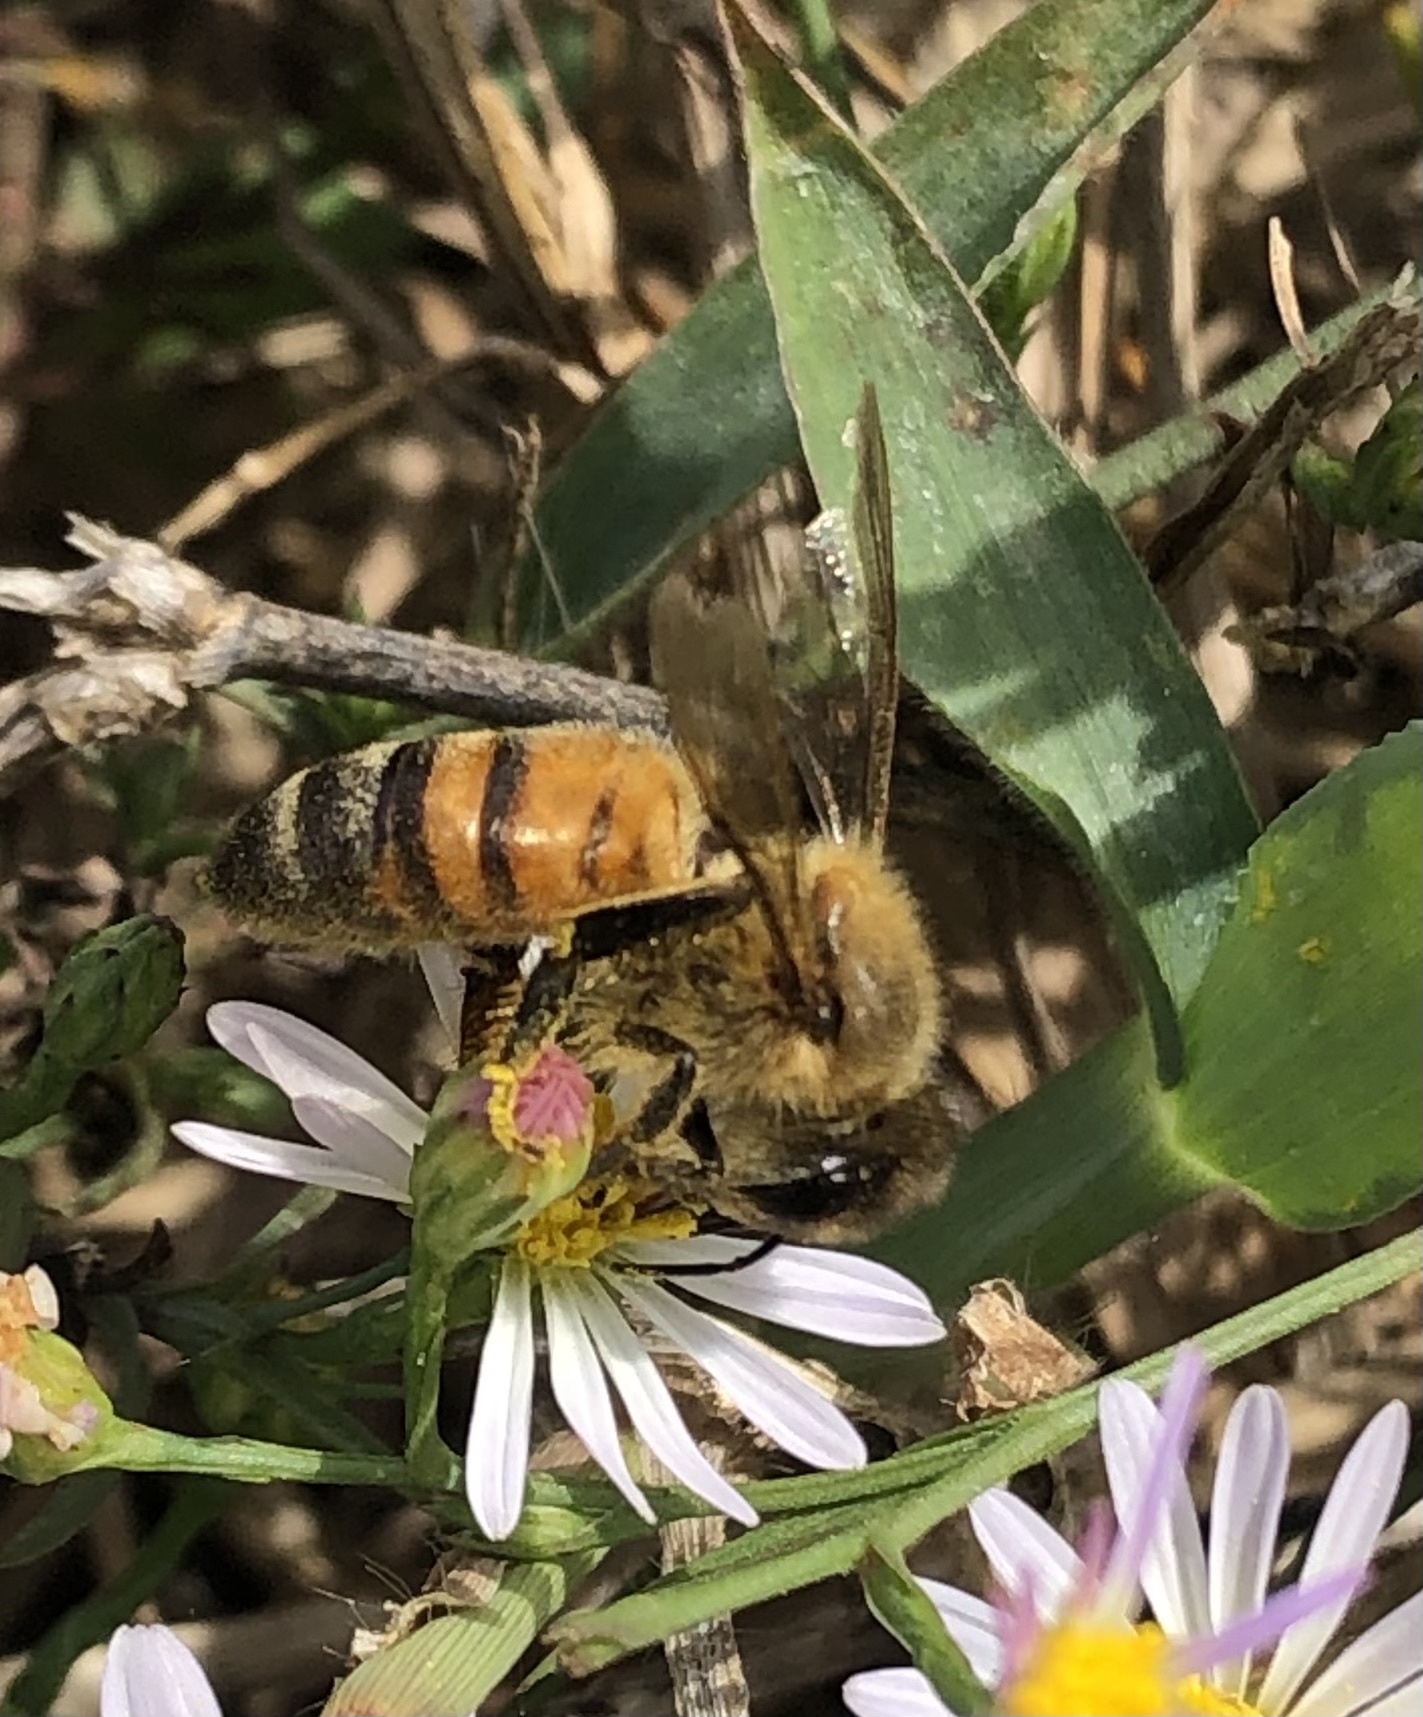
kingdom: Animalia
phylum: Arthropoda
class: Insecta
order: Hymenoptera
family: Apidae
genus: Apis
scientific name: Apis mellifera
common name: Honey bee
